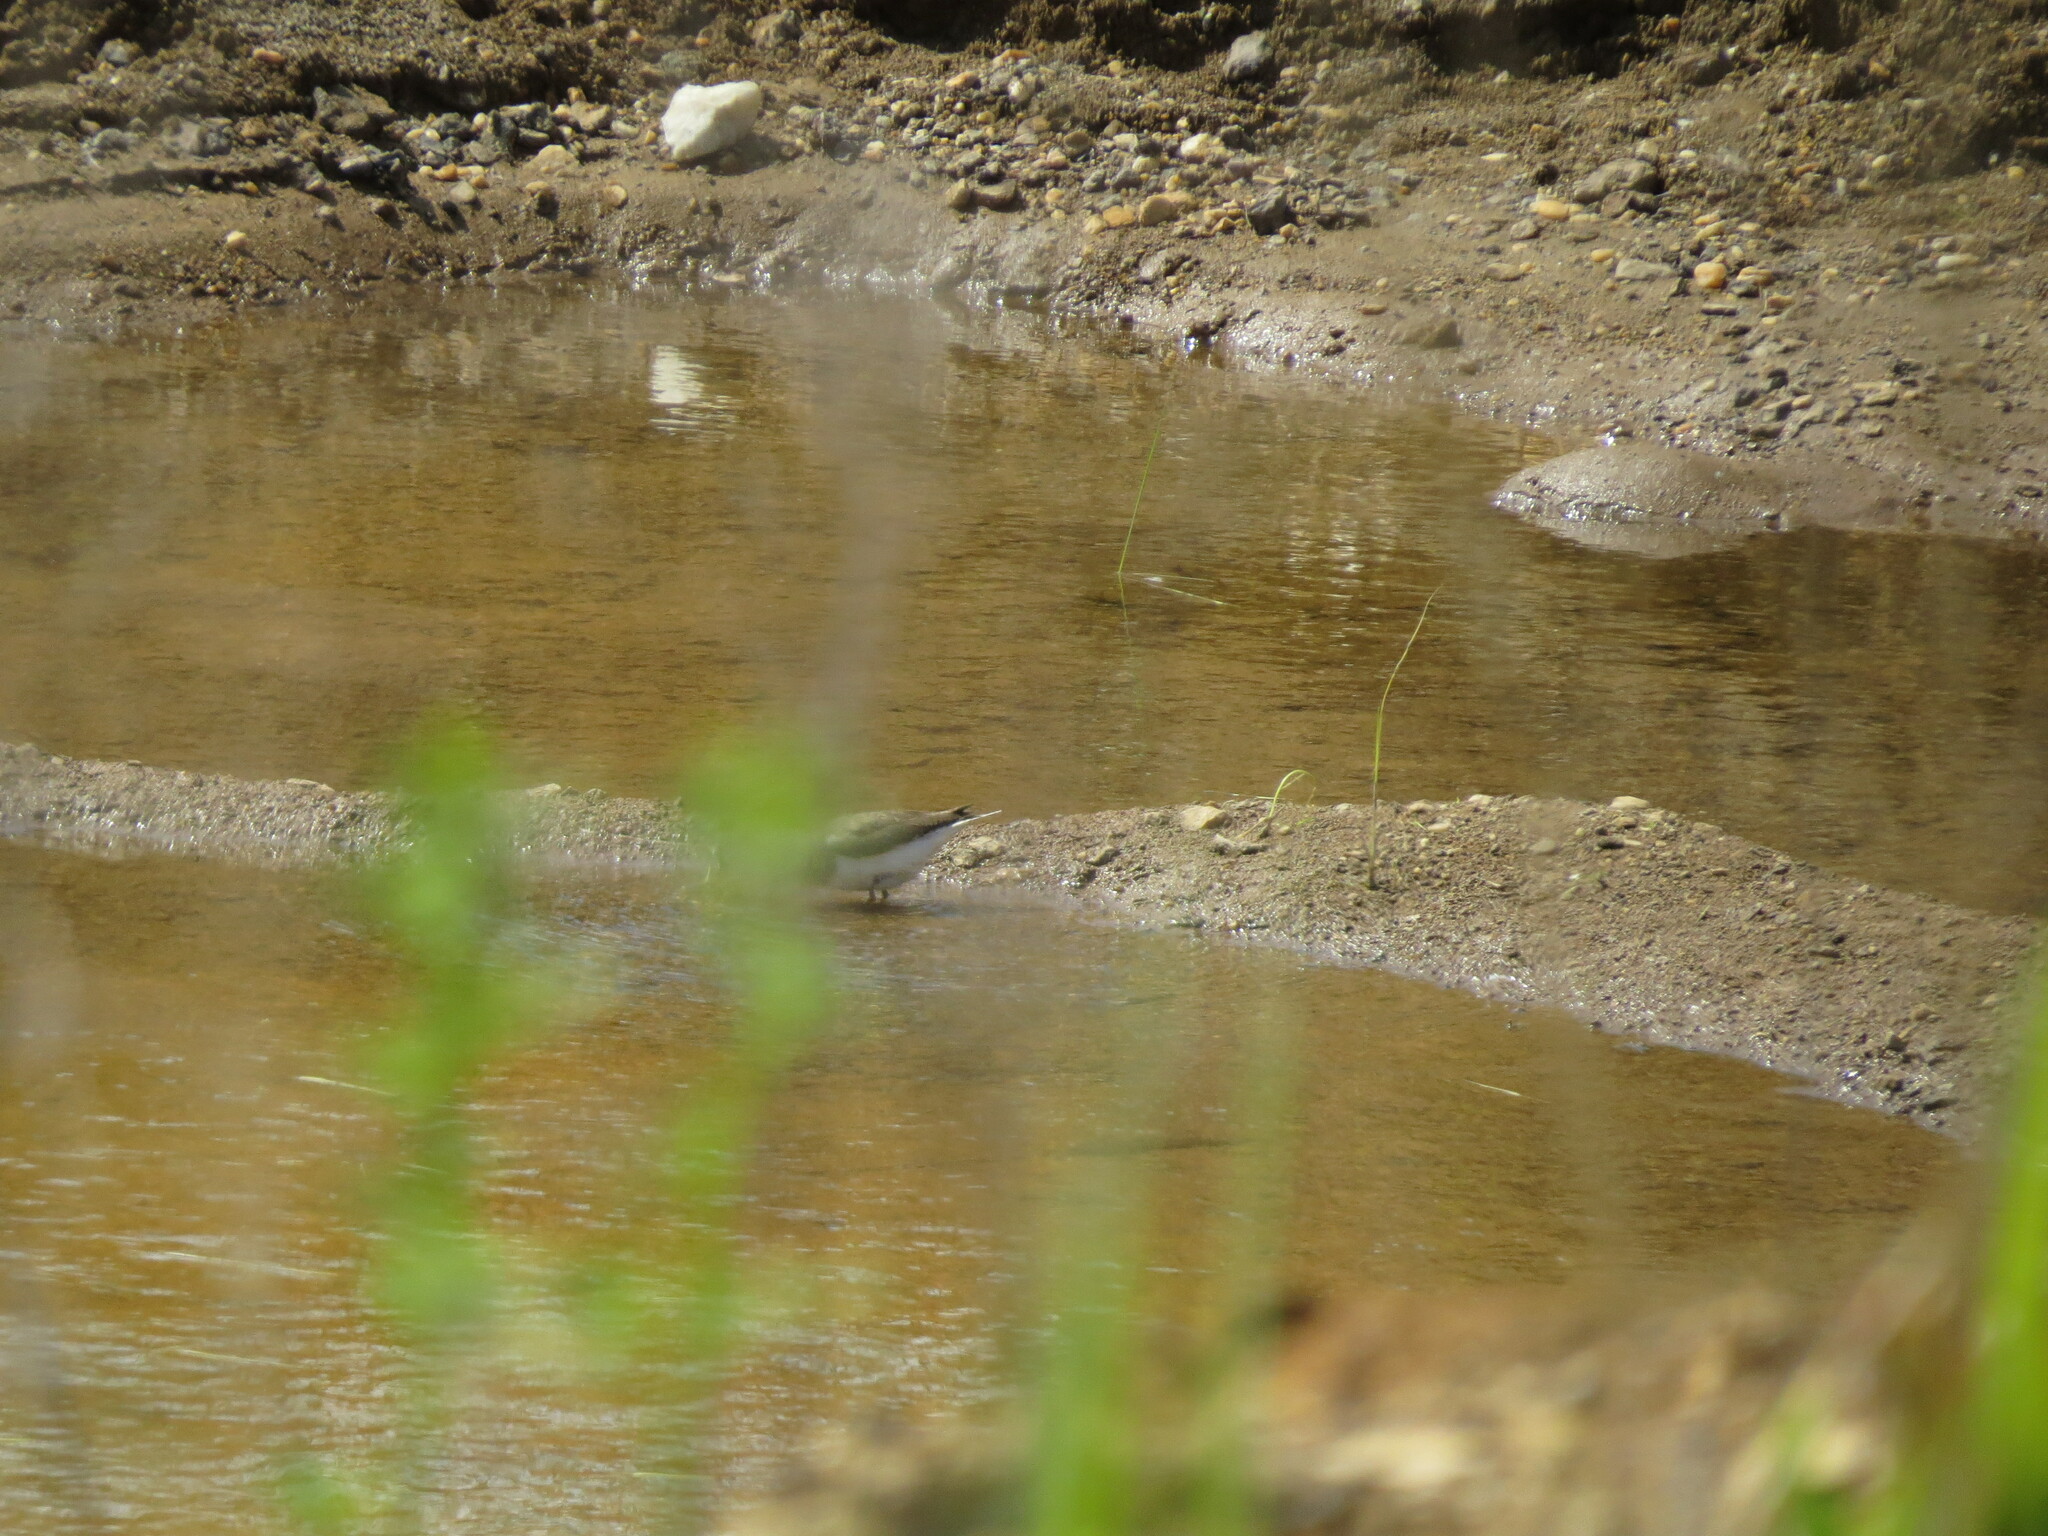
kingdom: Animalia
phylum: Chordata
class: Aves
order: Charadriiformes
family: Scolopacidae
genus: Actitis
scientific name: Actitis hypoleucos
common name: Common sandpiper
